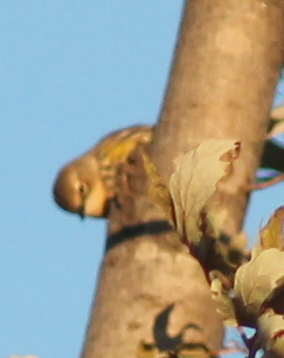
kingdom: Animalia
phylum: Chordata
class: Aves
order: Passeriformes
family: Parulidae
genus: Setophaga
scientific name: Setophaga coronata
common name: Myrtle warbler
